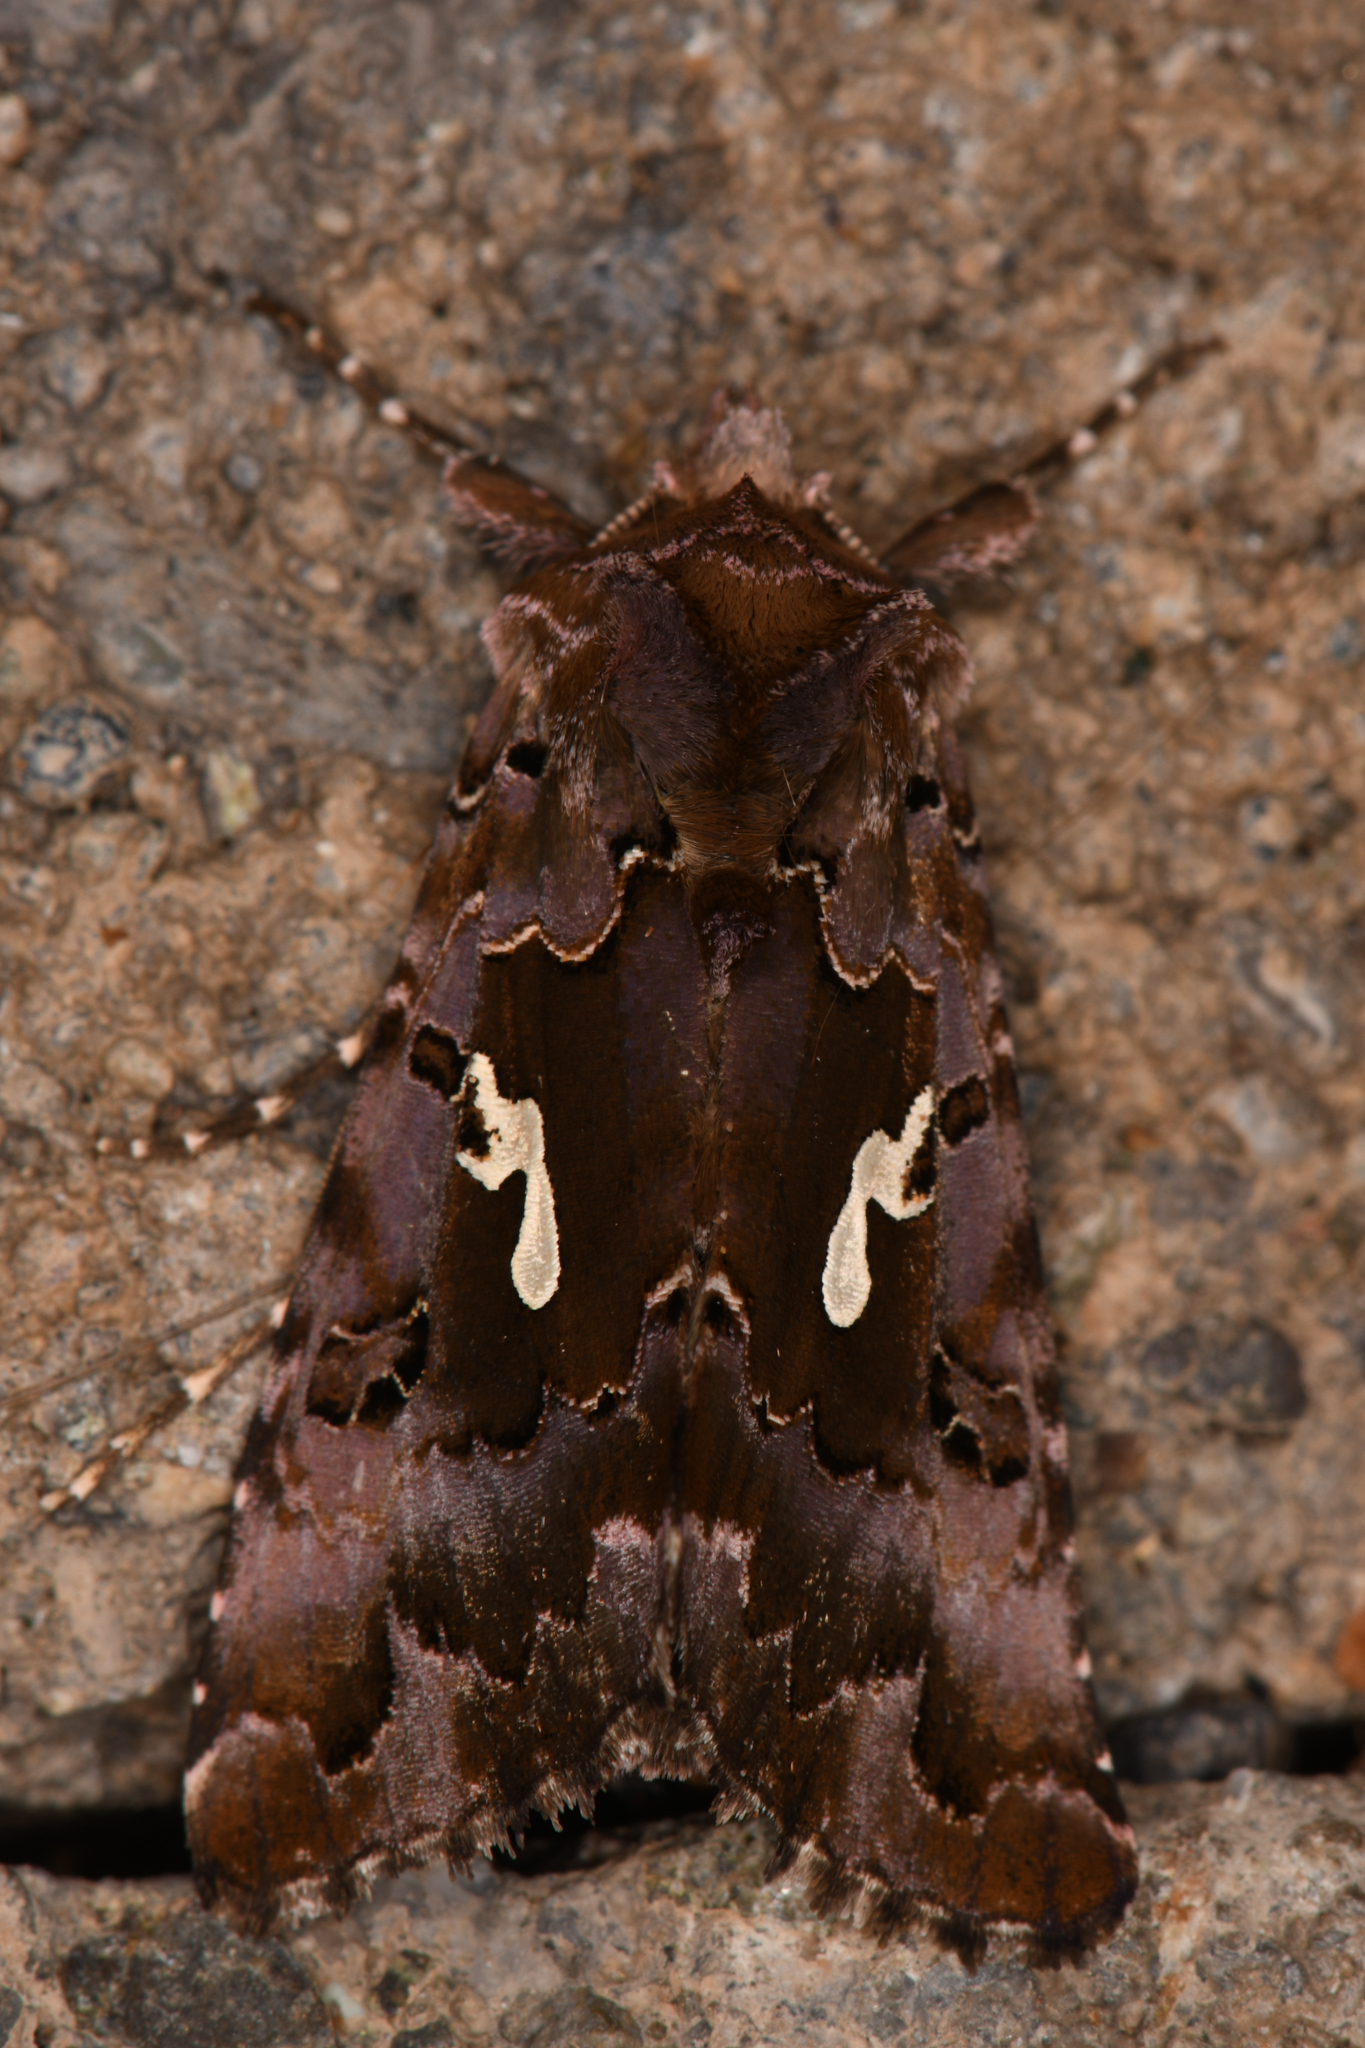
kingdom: Animalia
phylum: Arthropoda
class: Insecta
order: Lepidoptera
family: Noctuidae
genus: Autographa
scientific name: Autographa corusca
